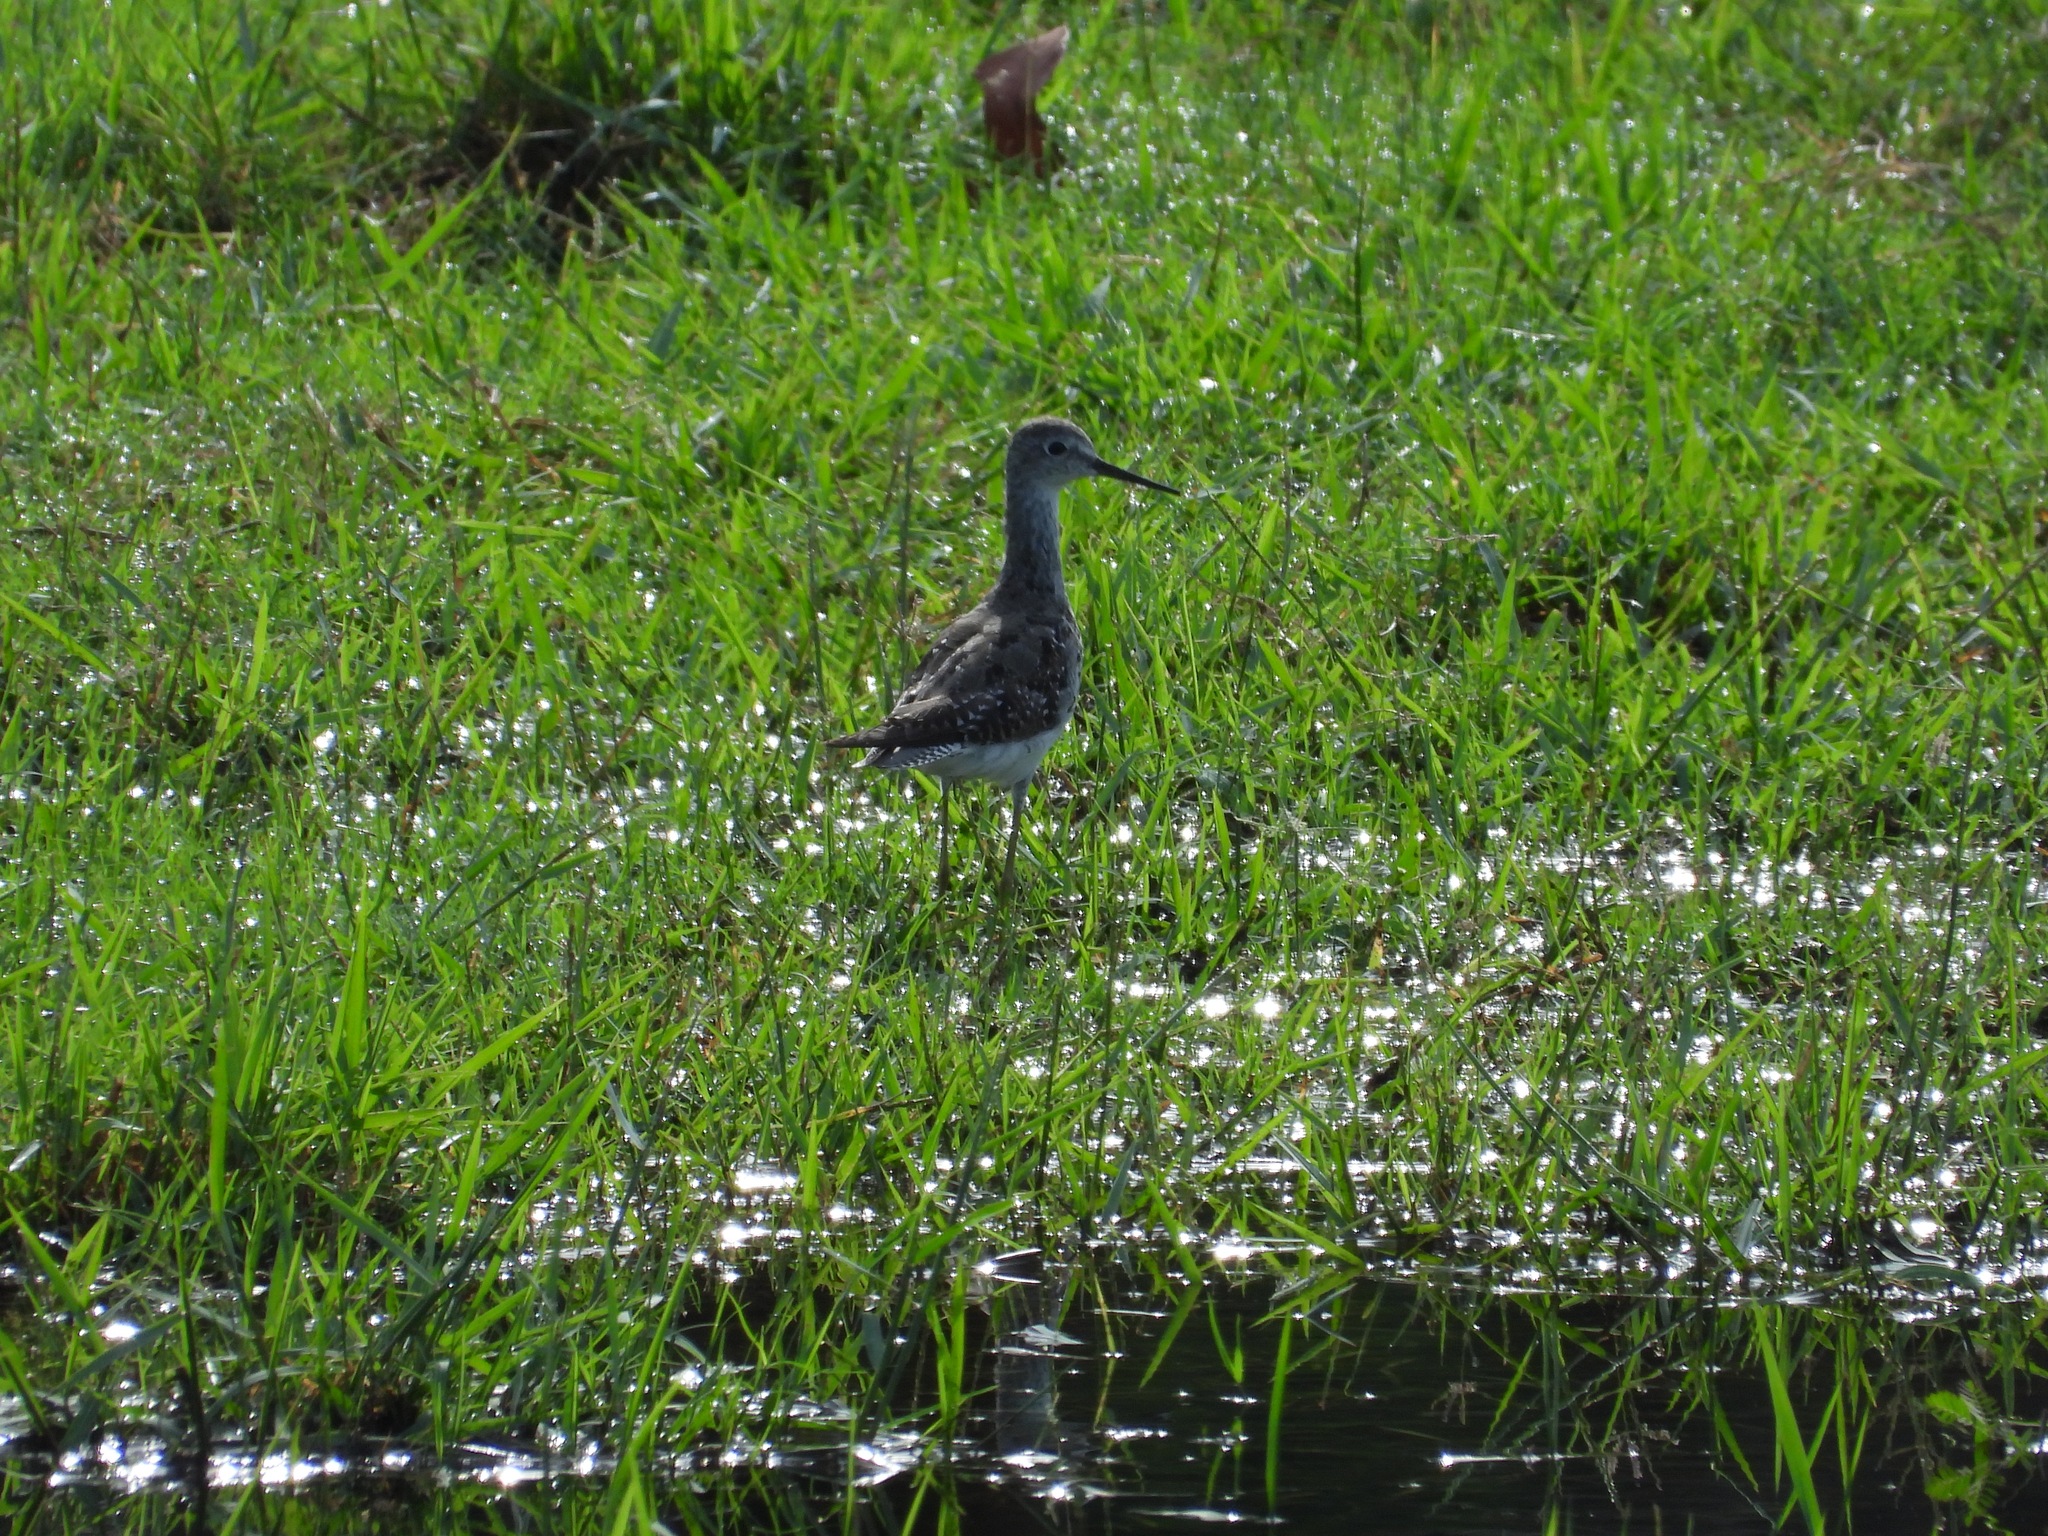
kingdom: Animalia
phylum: Chordata
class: Aves
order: Charadriiformes
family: Scolopacidae
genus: Tringa
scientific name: Tringa flavipes
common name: Lesser yellowlegs
